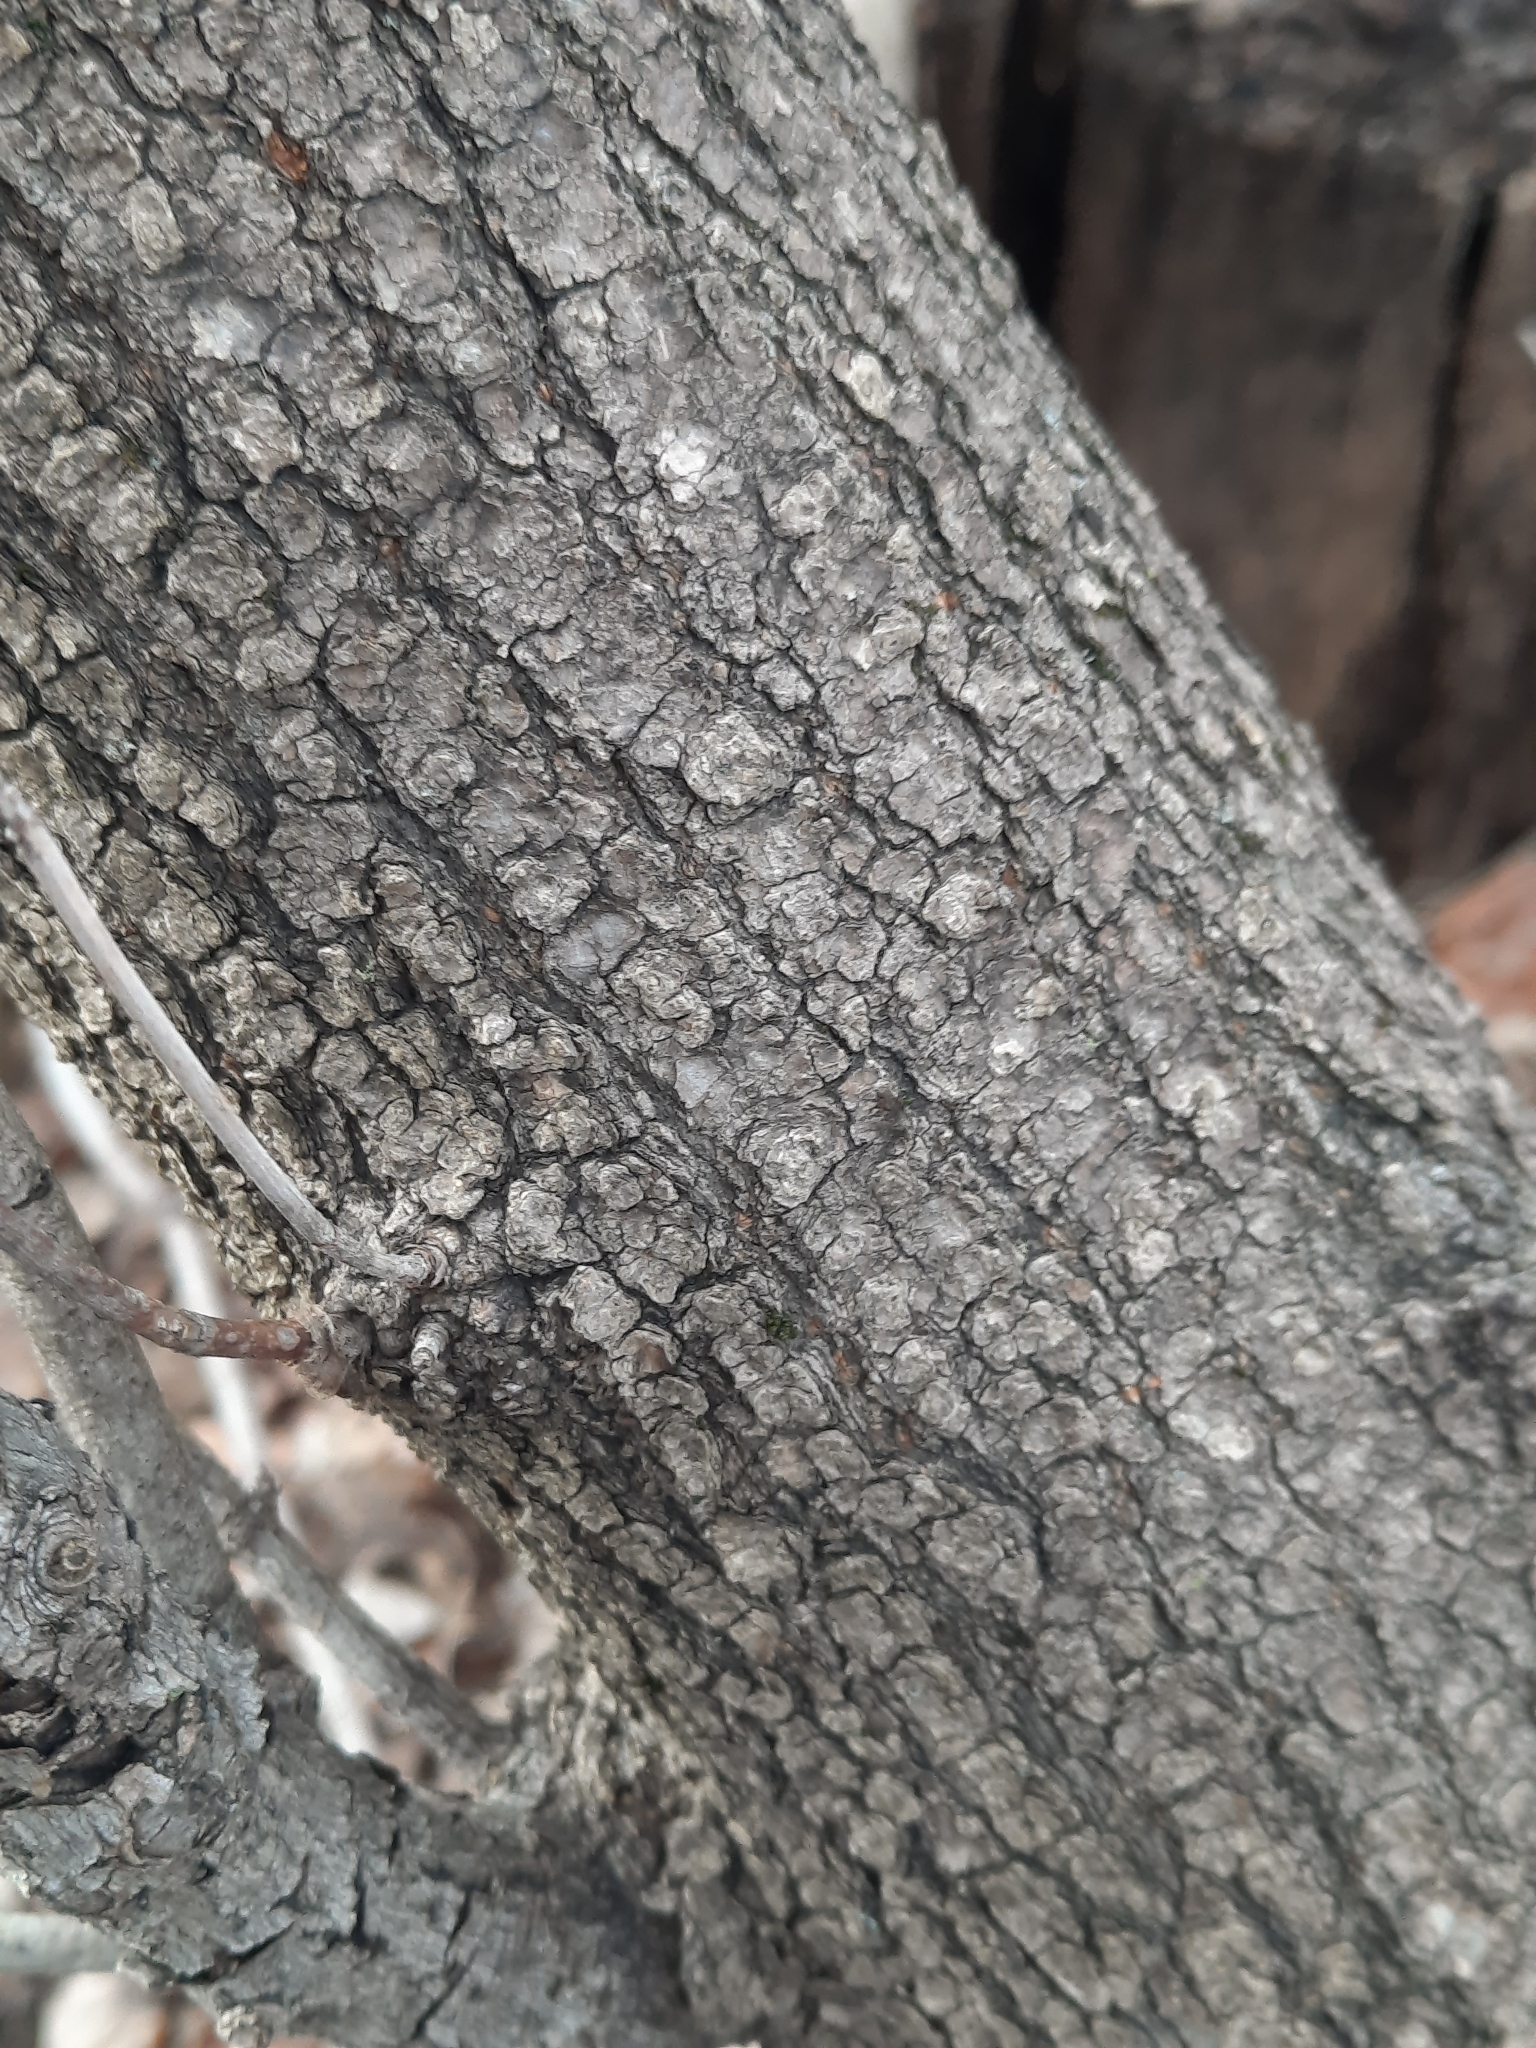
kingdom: Plantae
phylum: Tracheophyta
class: Magnoliopsida
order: Sapindales
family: Sapindaceae
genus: Acer
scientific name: Acer negundo
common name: Ashleaf maple
